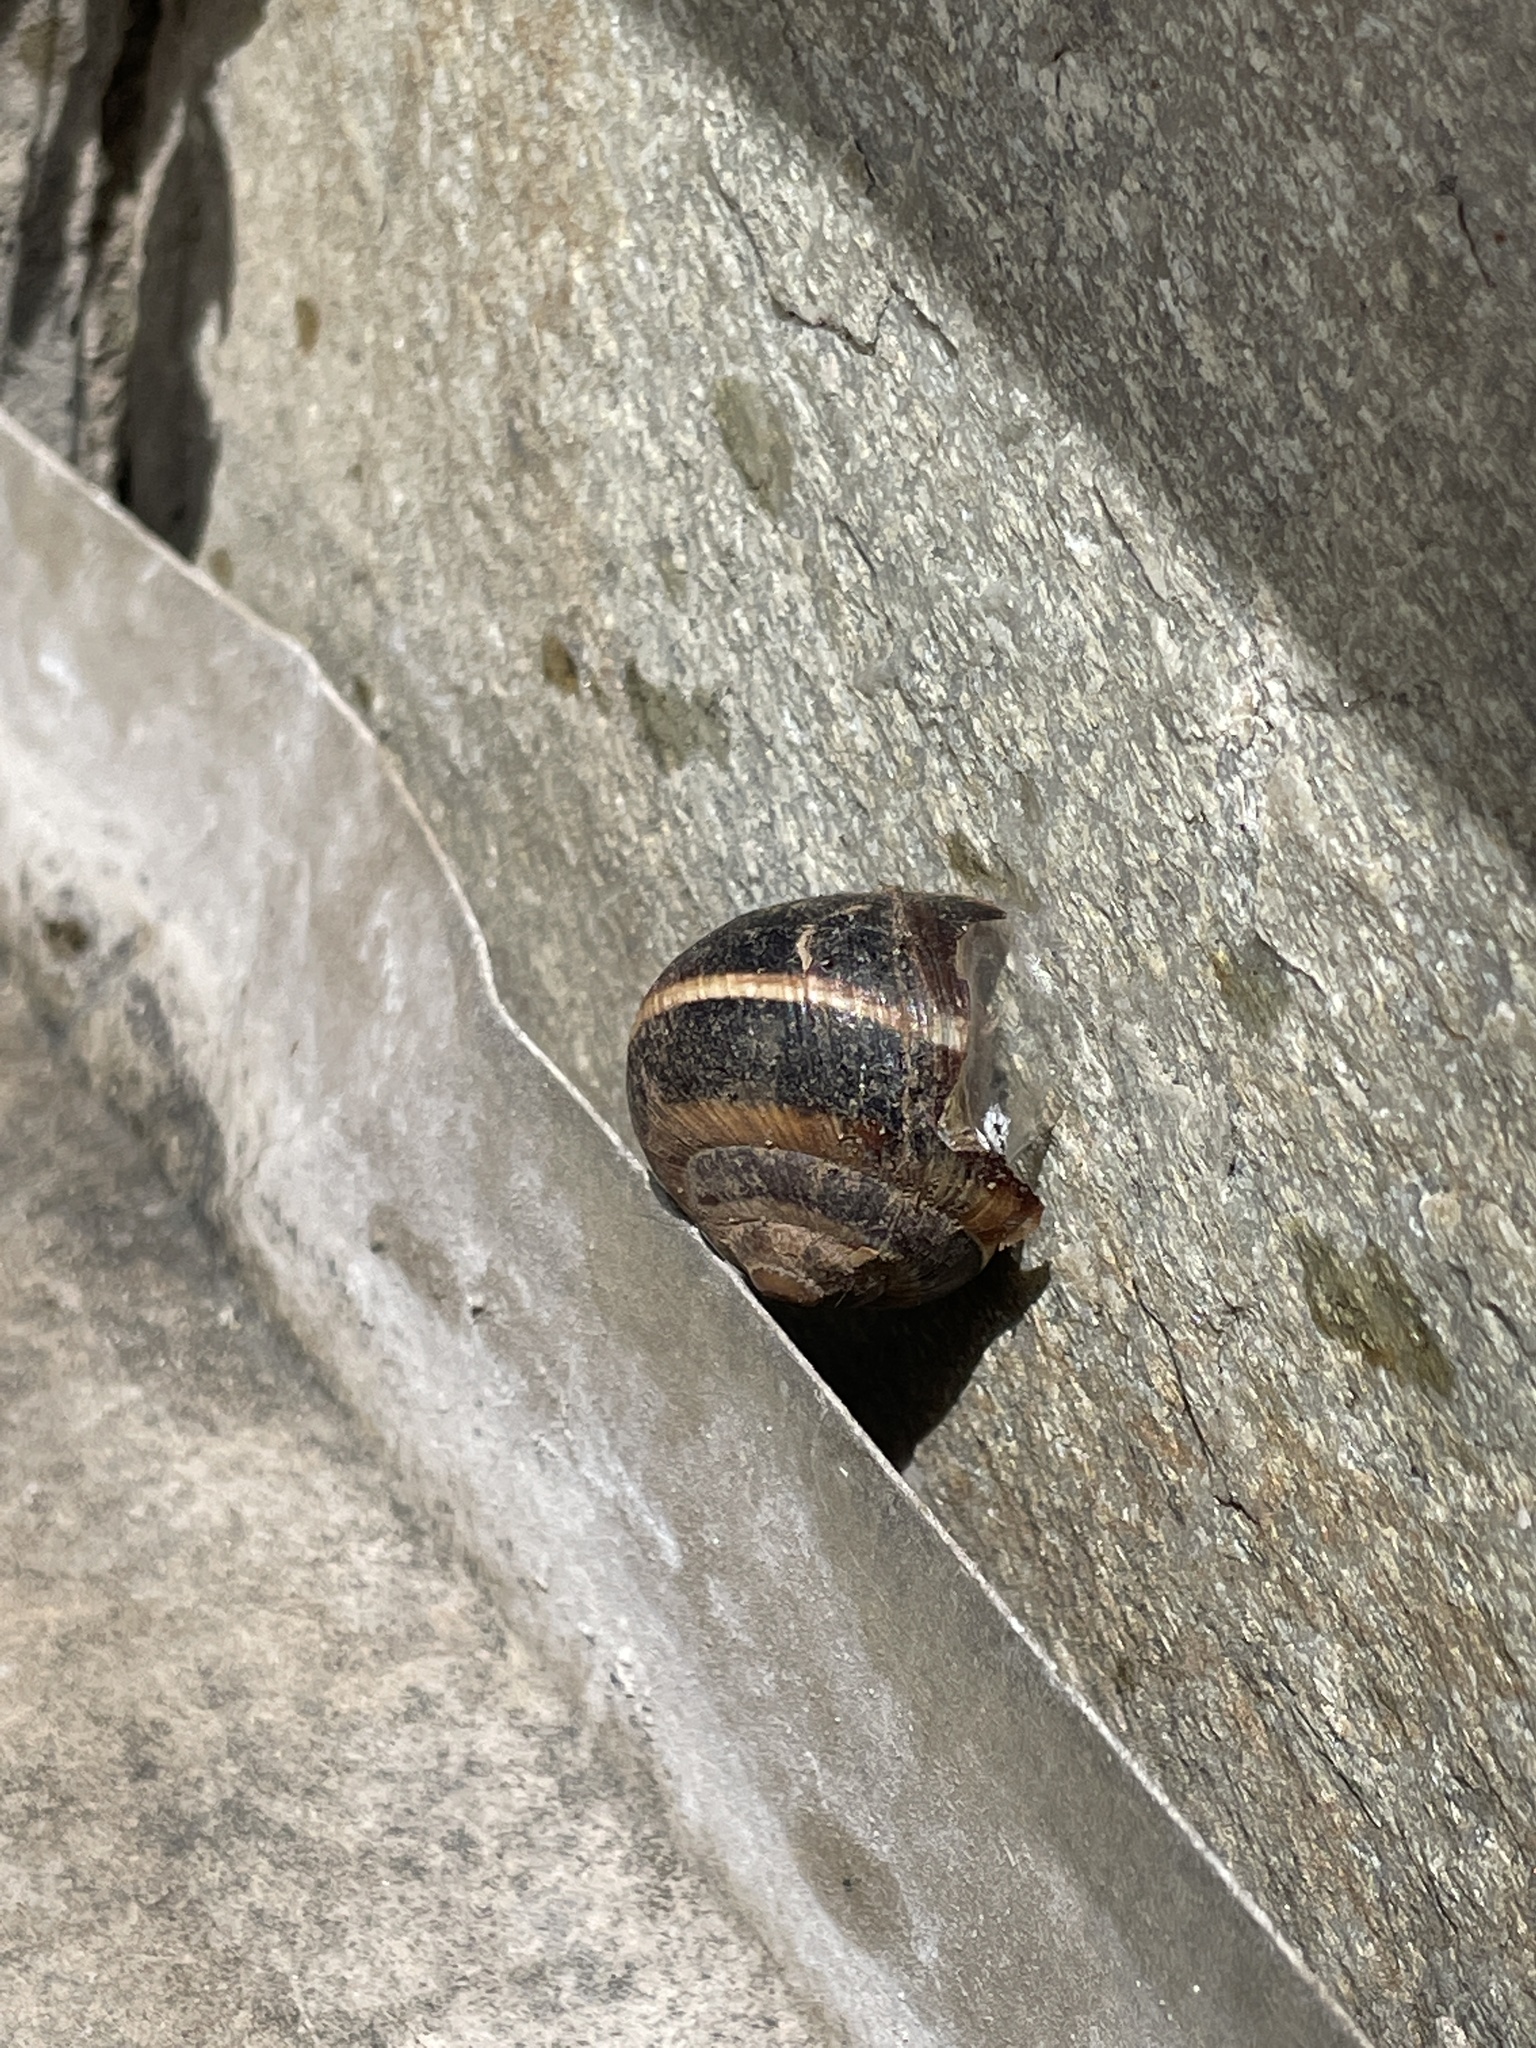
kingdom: Animalia
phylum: Mollusca
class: Gastropoda
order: Stylommatophora
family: Helicidae
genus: Helix
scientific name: Helix lucorum
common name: Turkish snail
